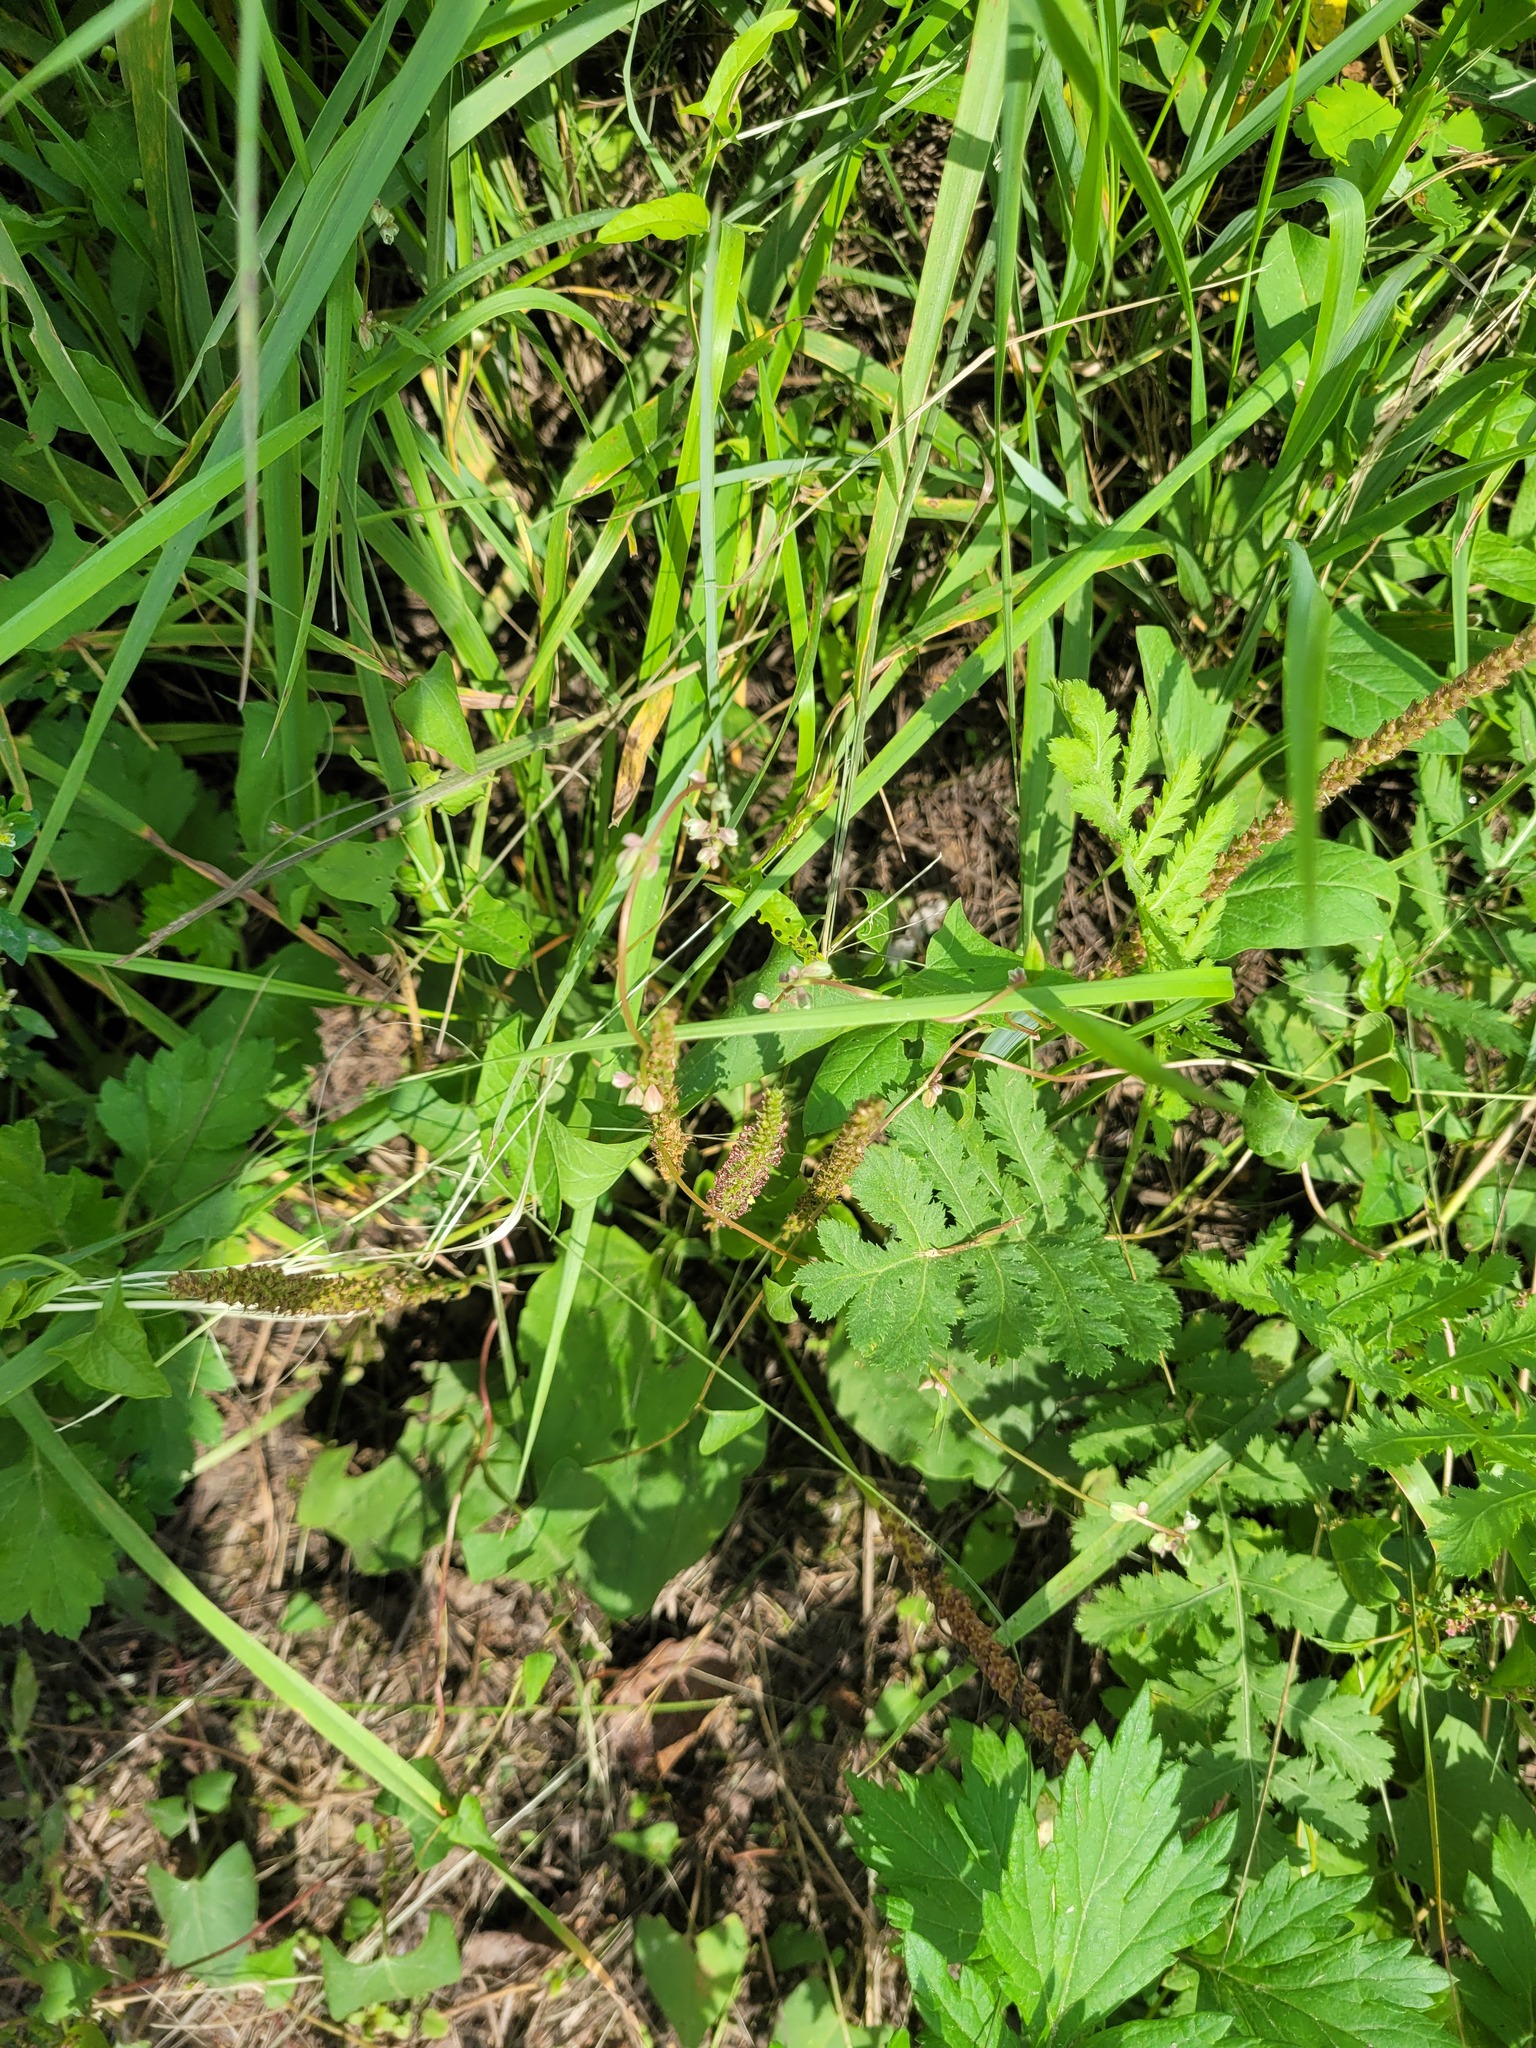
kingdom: Plantae
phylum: Tracheophyta
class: Magnoliopsida
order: Caryophyllales
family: Polygonaceae
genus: Fallopia
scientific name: Fallopia convolvulus
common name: Black bindweed
